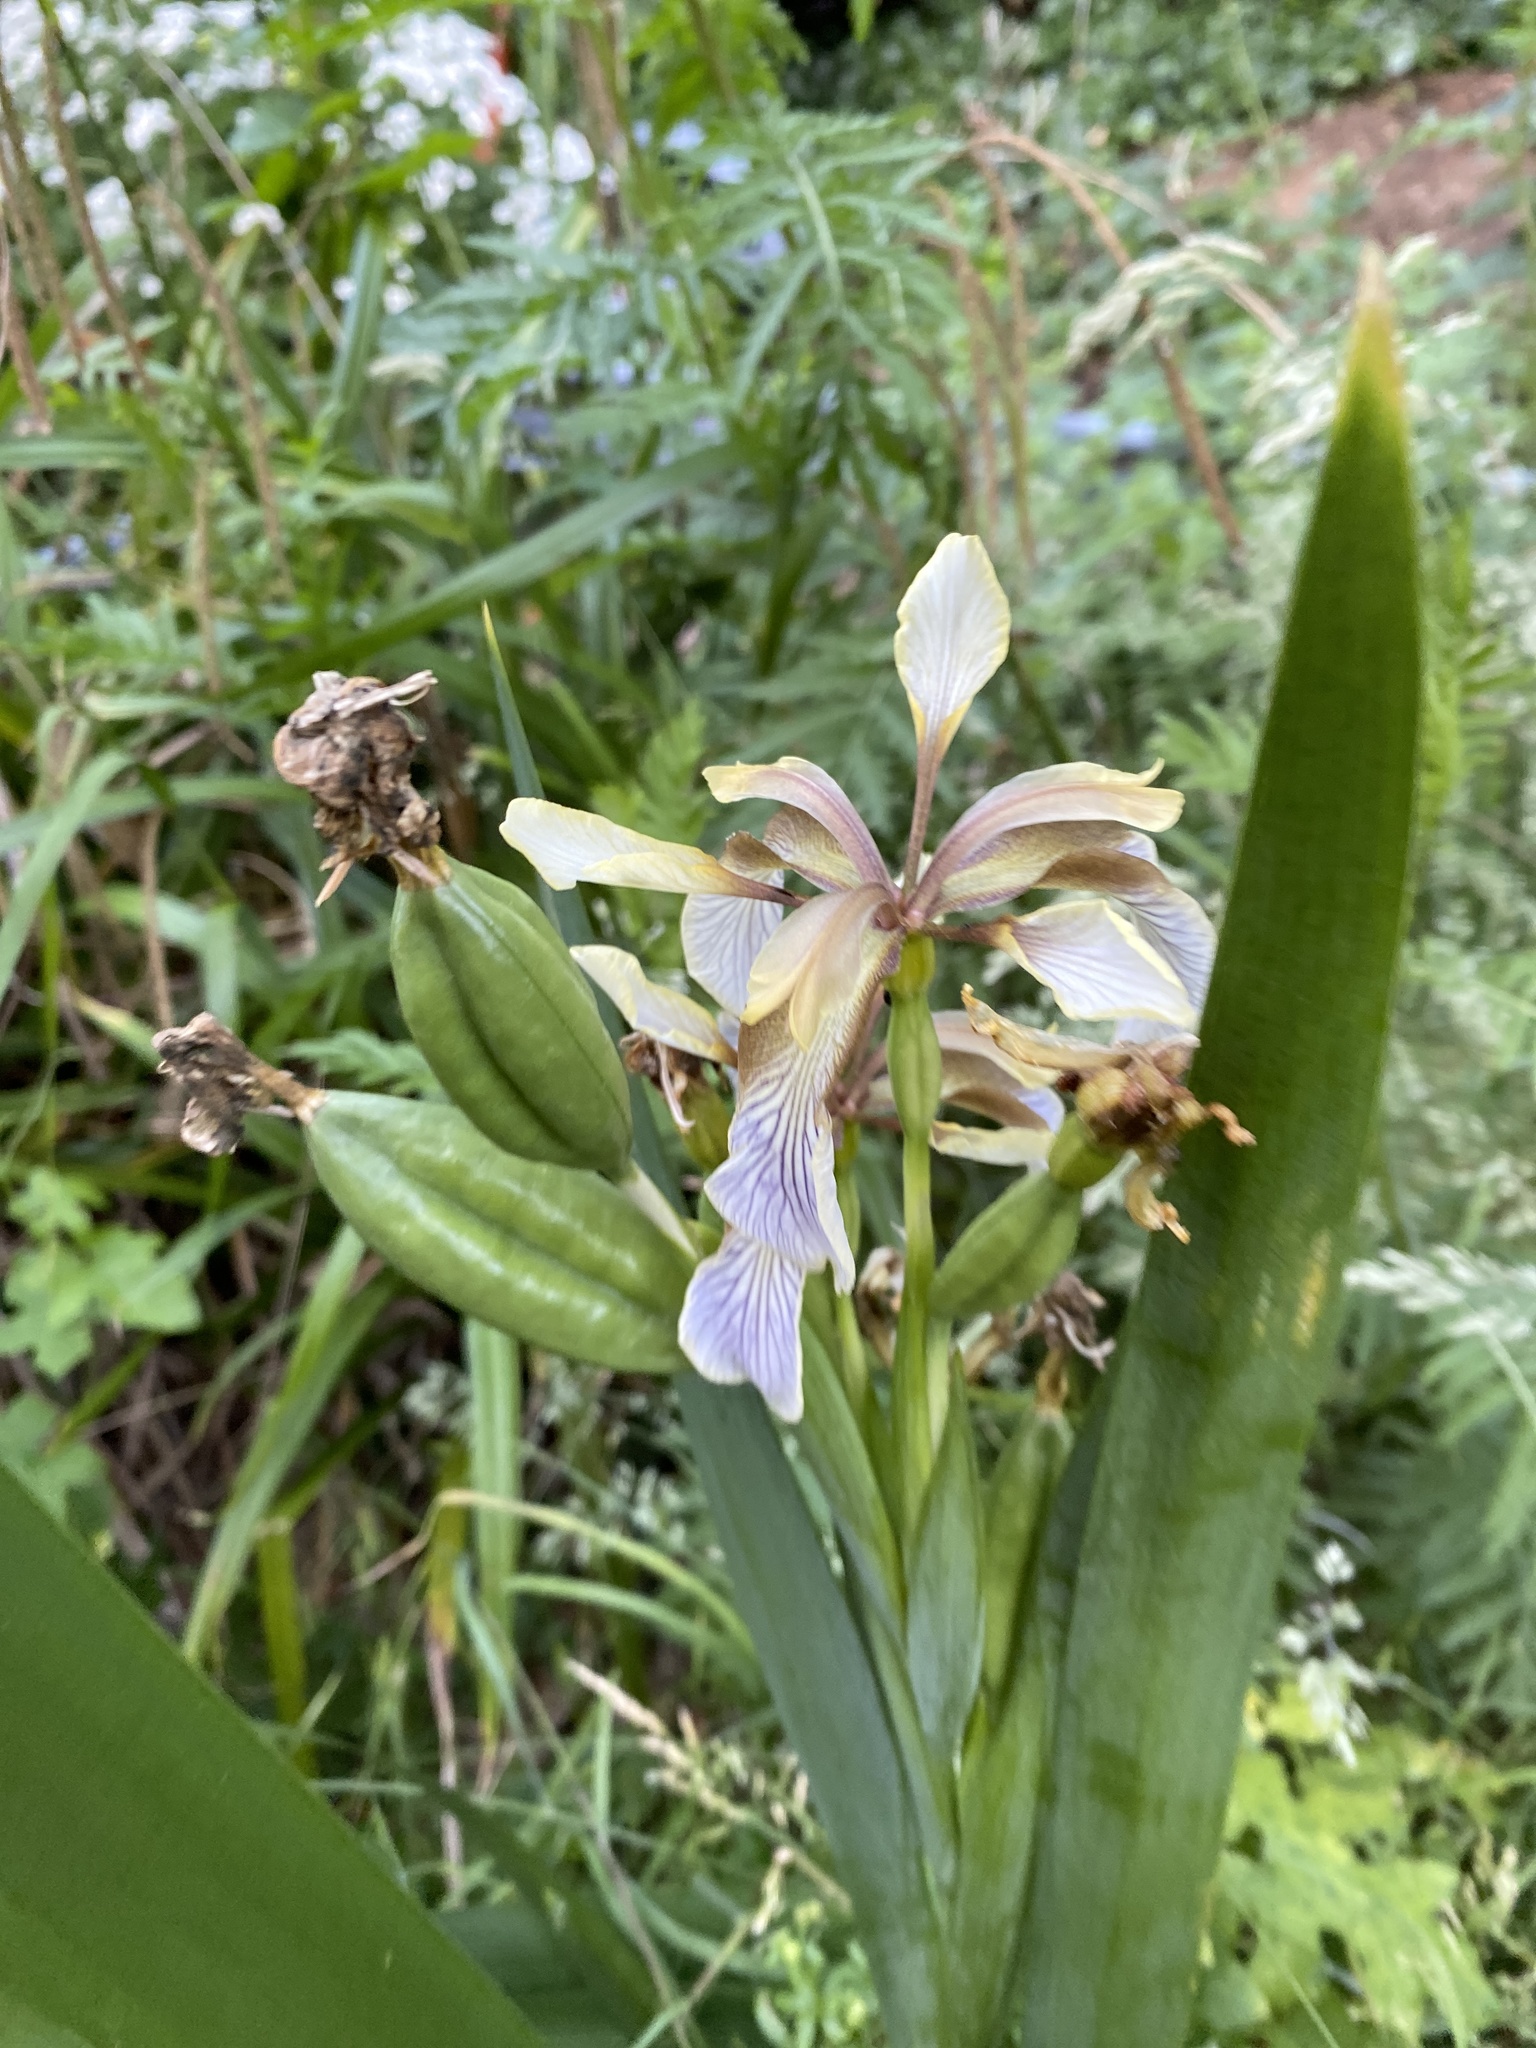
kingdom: Plantae
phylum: Tracheophyta
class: Liliopsida
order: Asparagales
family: Iridaceae
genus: Iris
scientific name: Iris foetidissima
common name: Stinking iris
